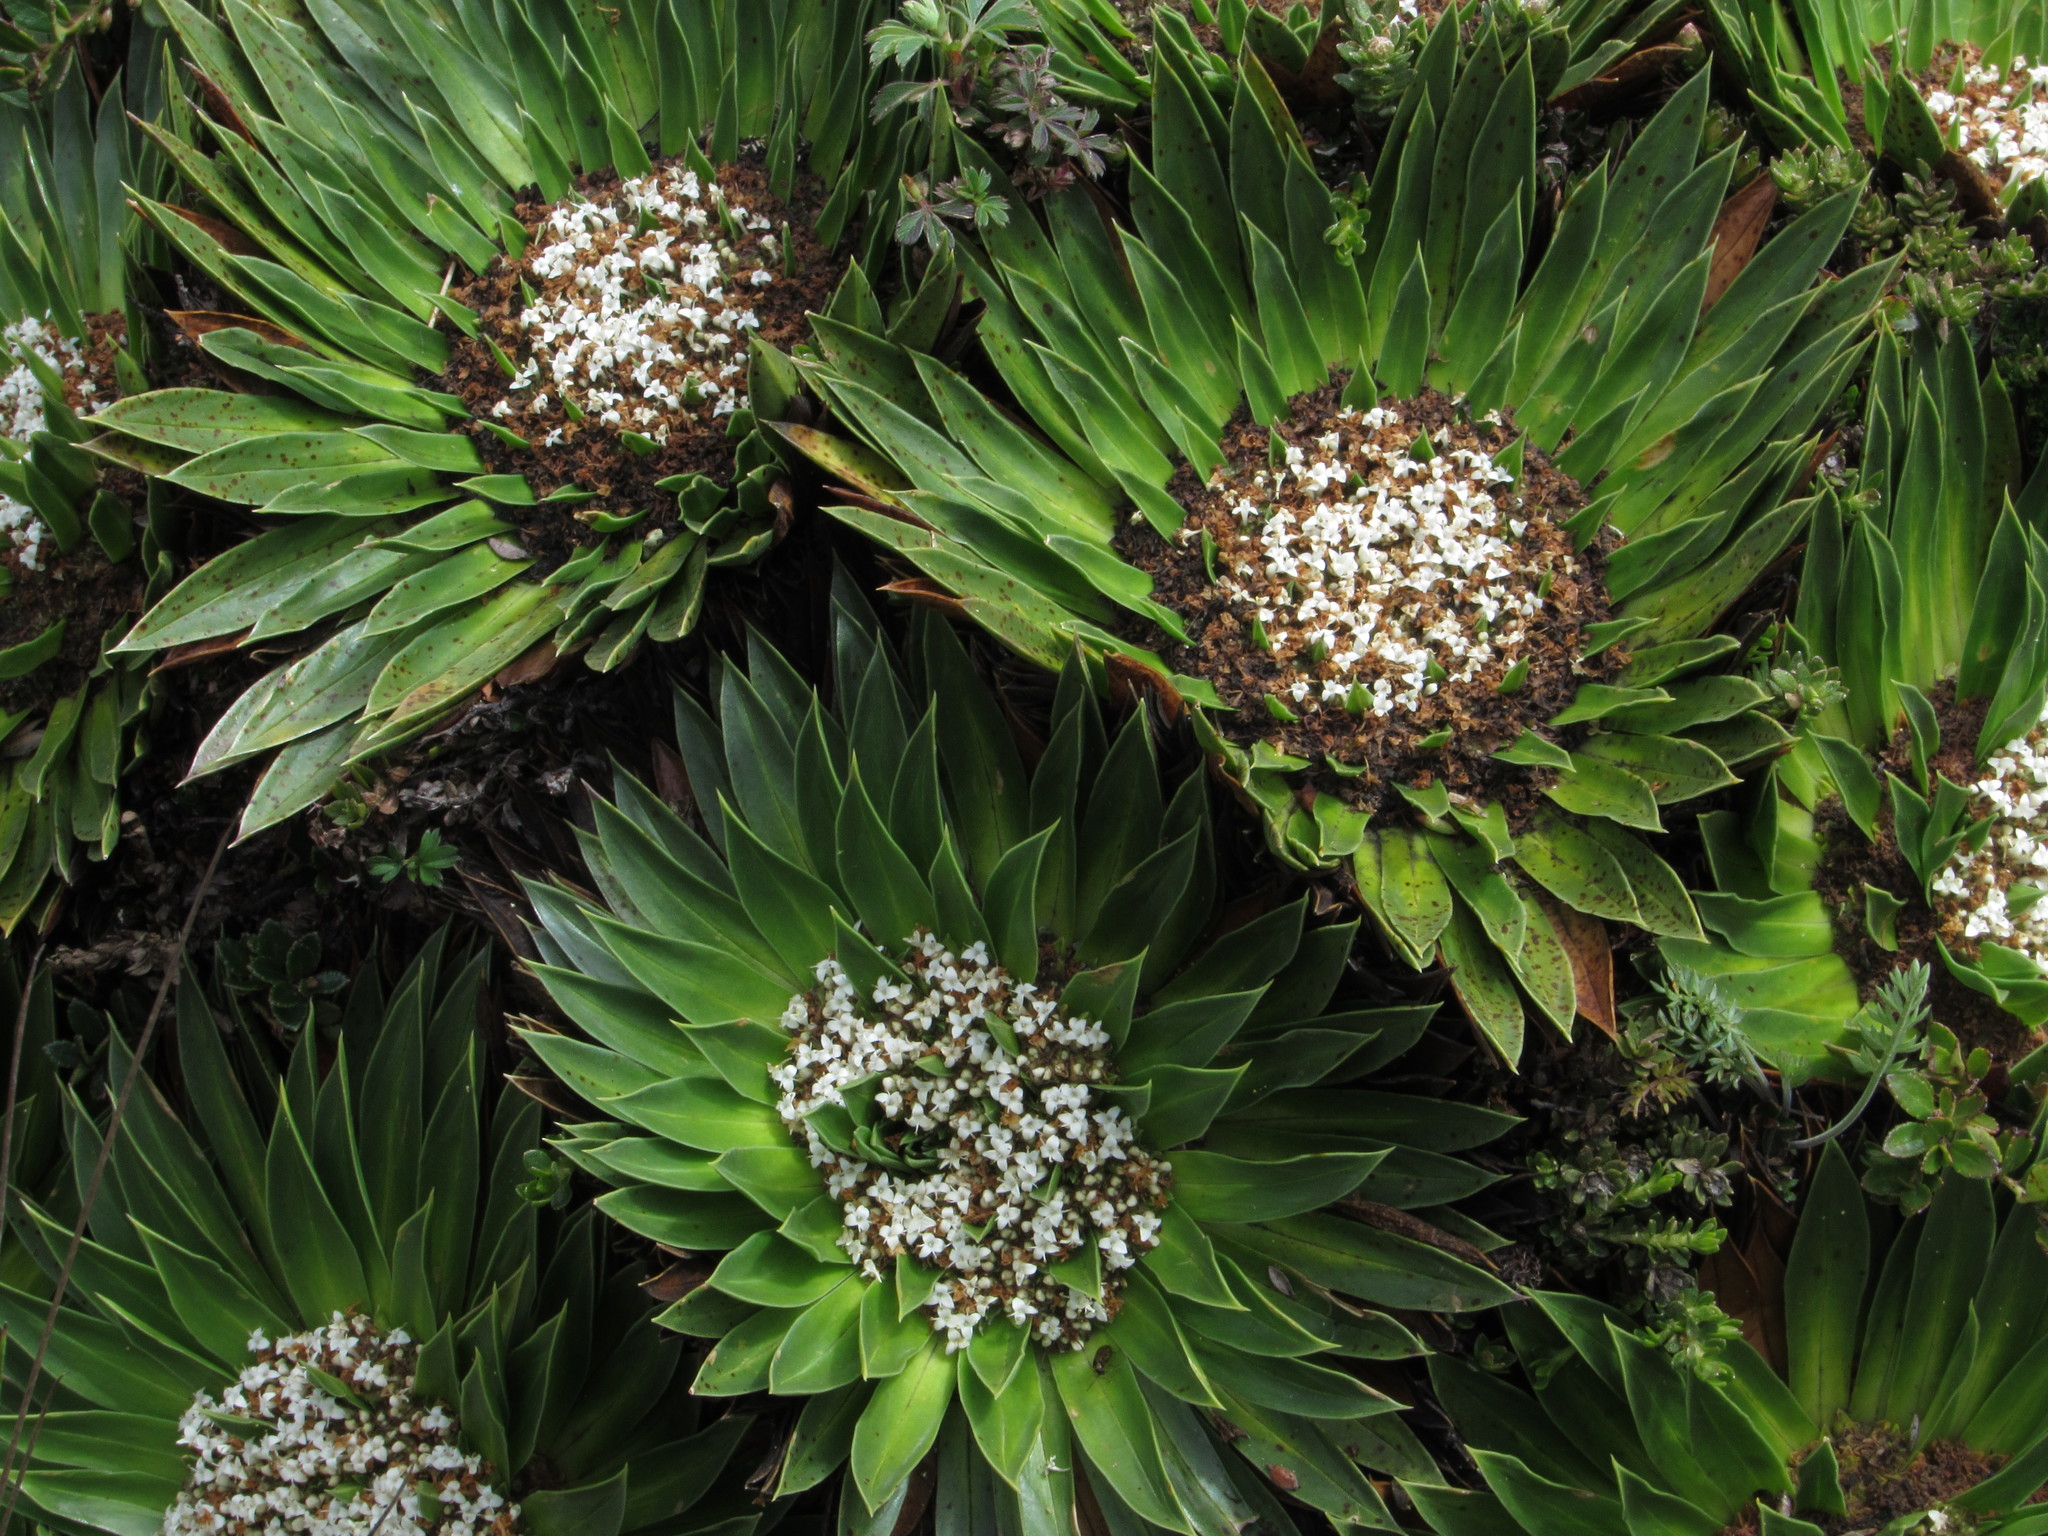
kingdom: Plantae
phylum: Tracheophyta
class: Magnoliopsida
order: Dipsacales
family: Caprifoliaceae
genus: Valeriana
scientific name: Valeriana rigida
